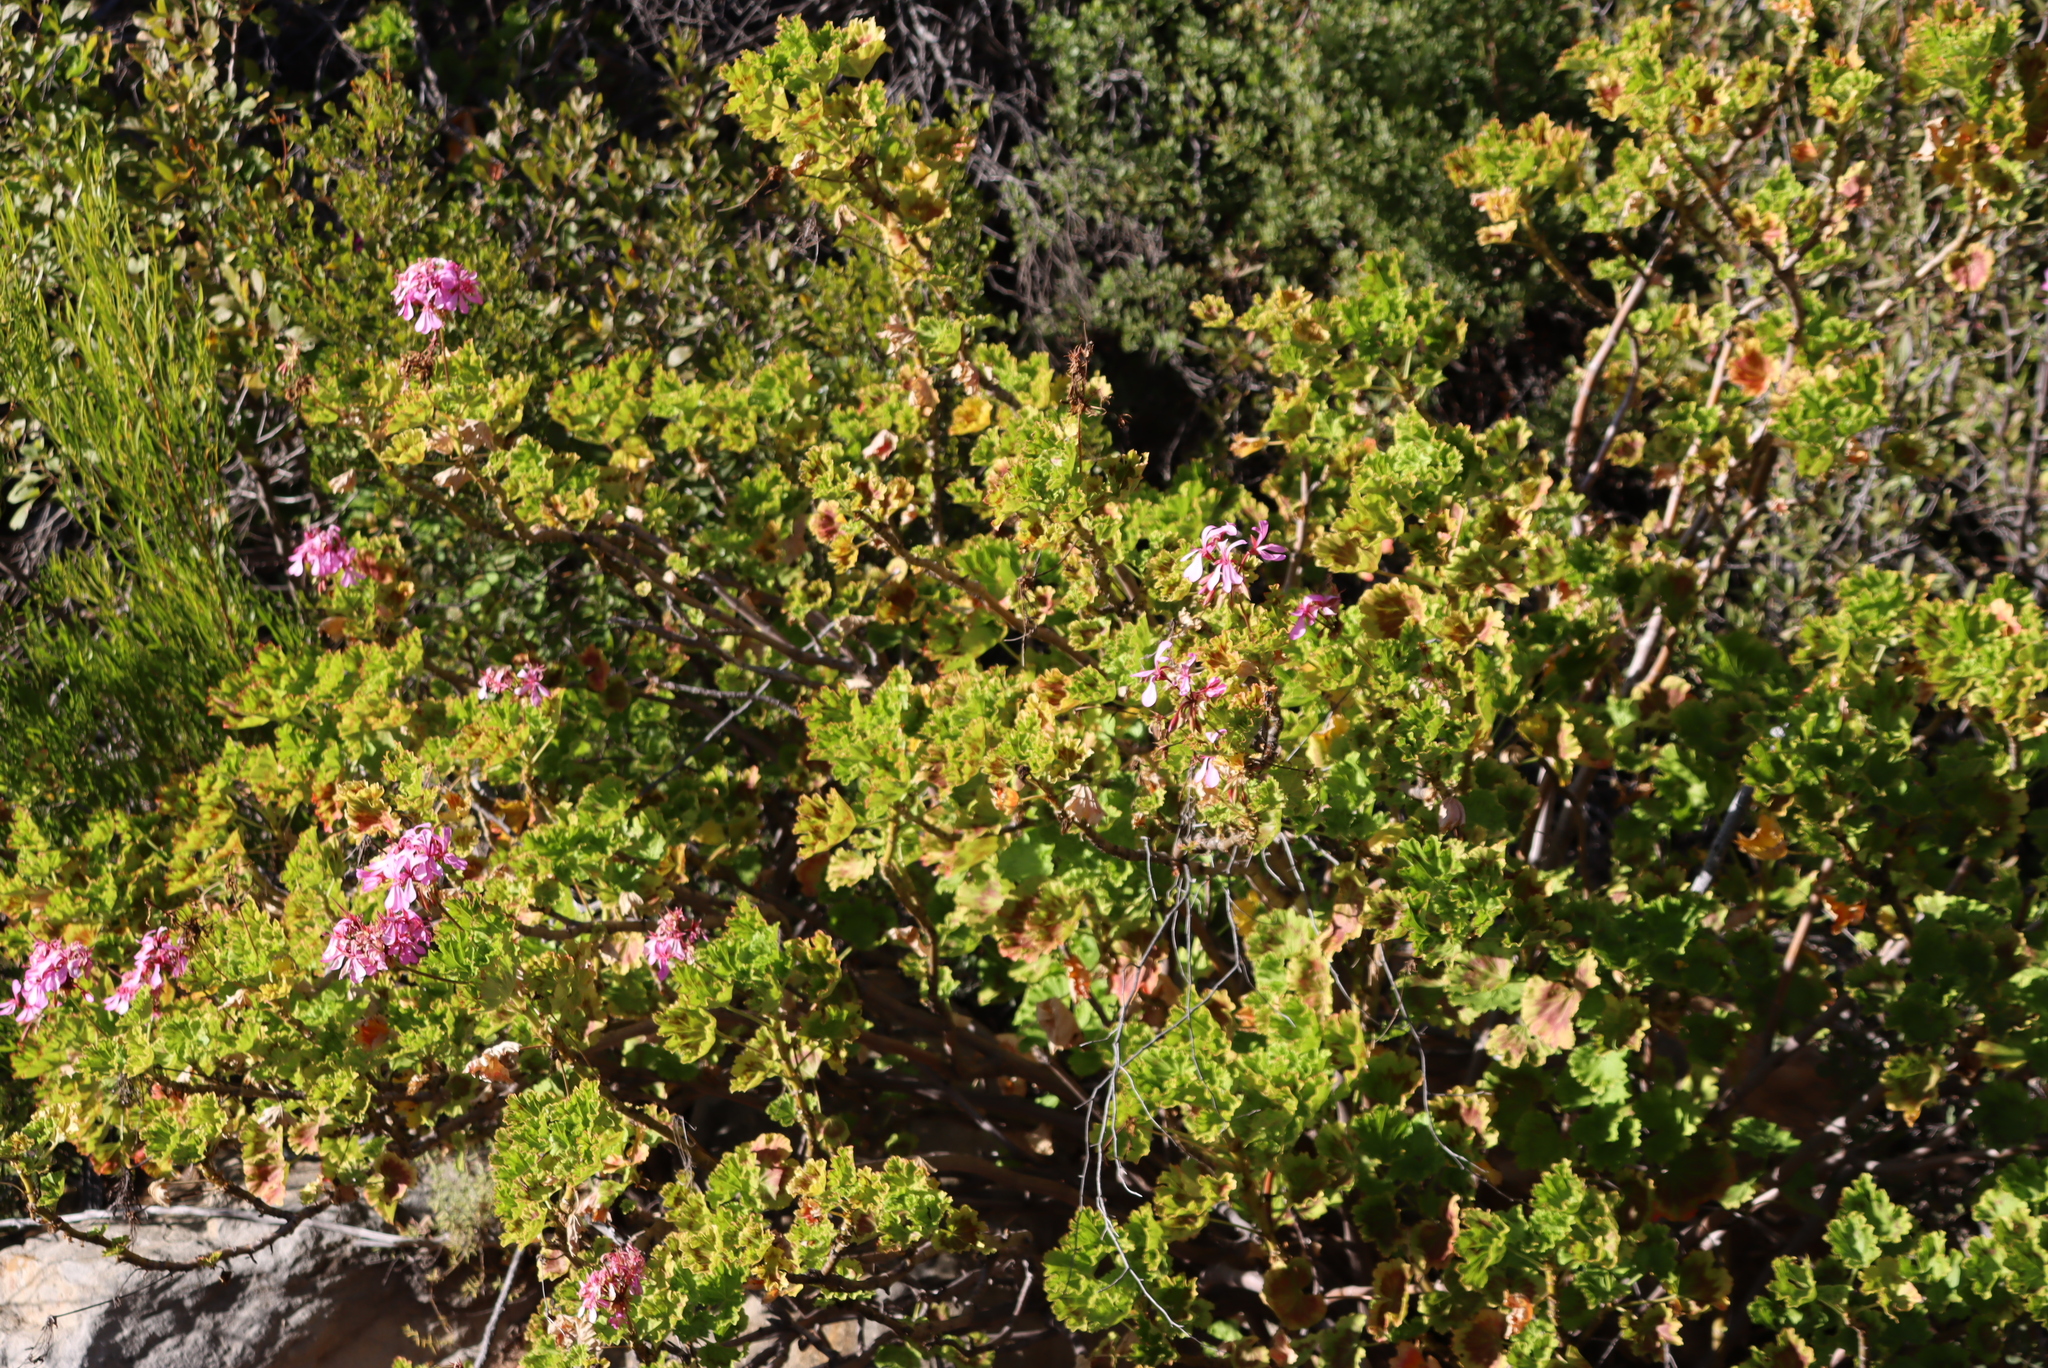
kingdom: Plantae
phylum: Tracheophyta
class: Magnoliopsida
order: Geraniales
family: Geraniaceae
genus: Pelargonium
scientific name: Pelargonium zonale
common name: Horseshoe geranium
